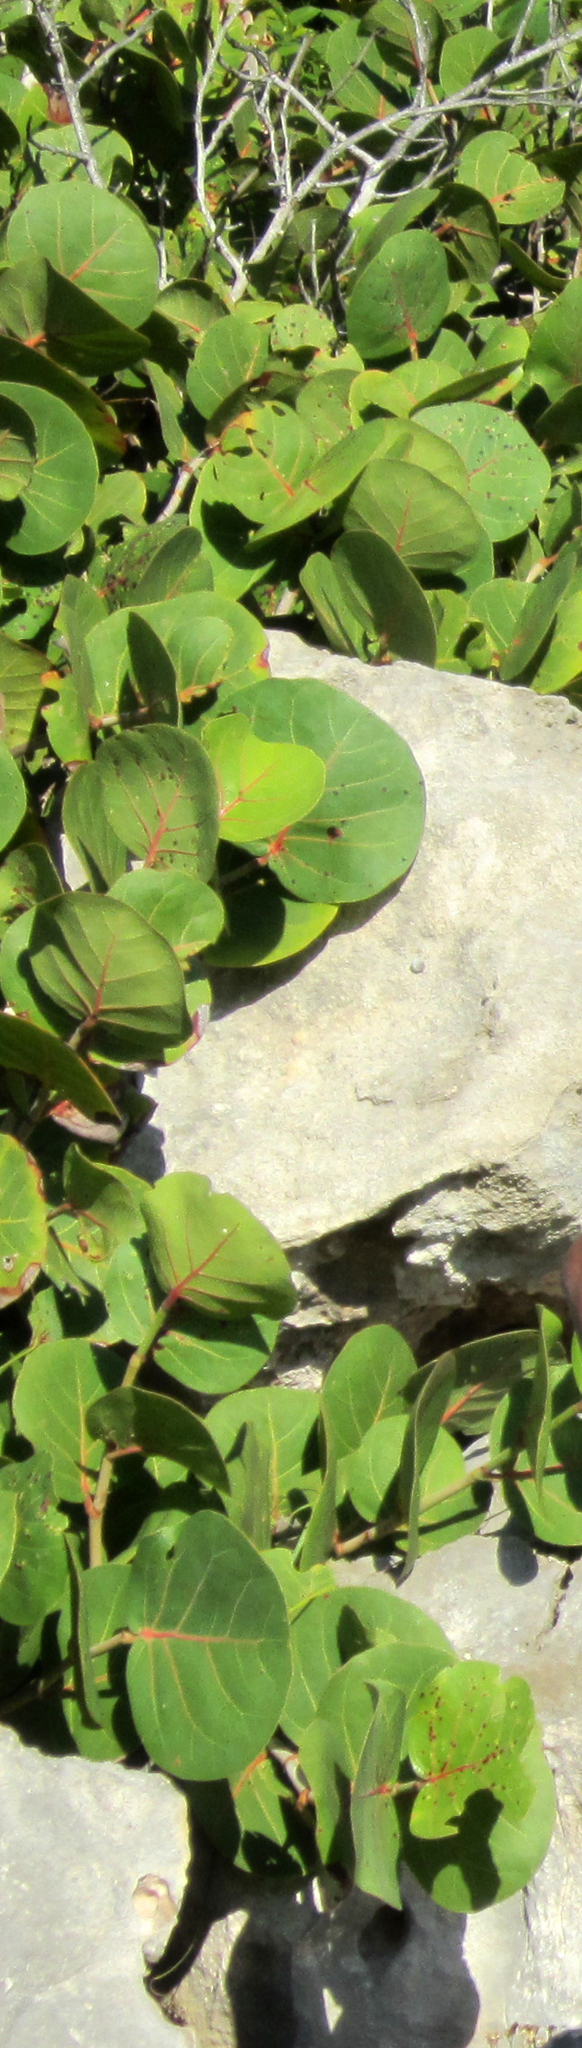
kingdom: Plantae
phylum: Tracheophyta
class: Magnoliopsida
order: Caryophyllales
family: Polygonaceae
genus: Coccoloba
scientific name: Coccoloba uvifera
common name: Seagrape
